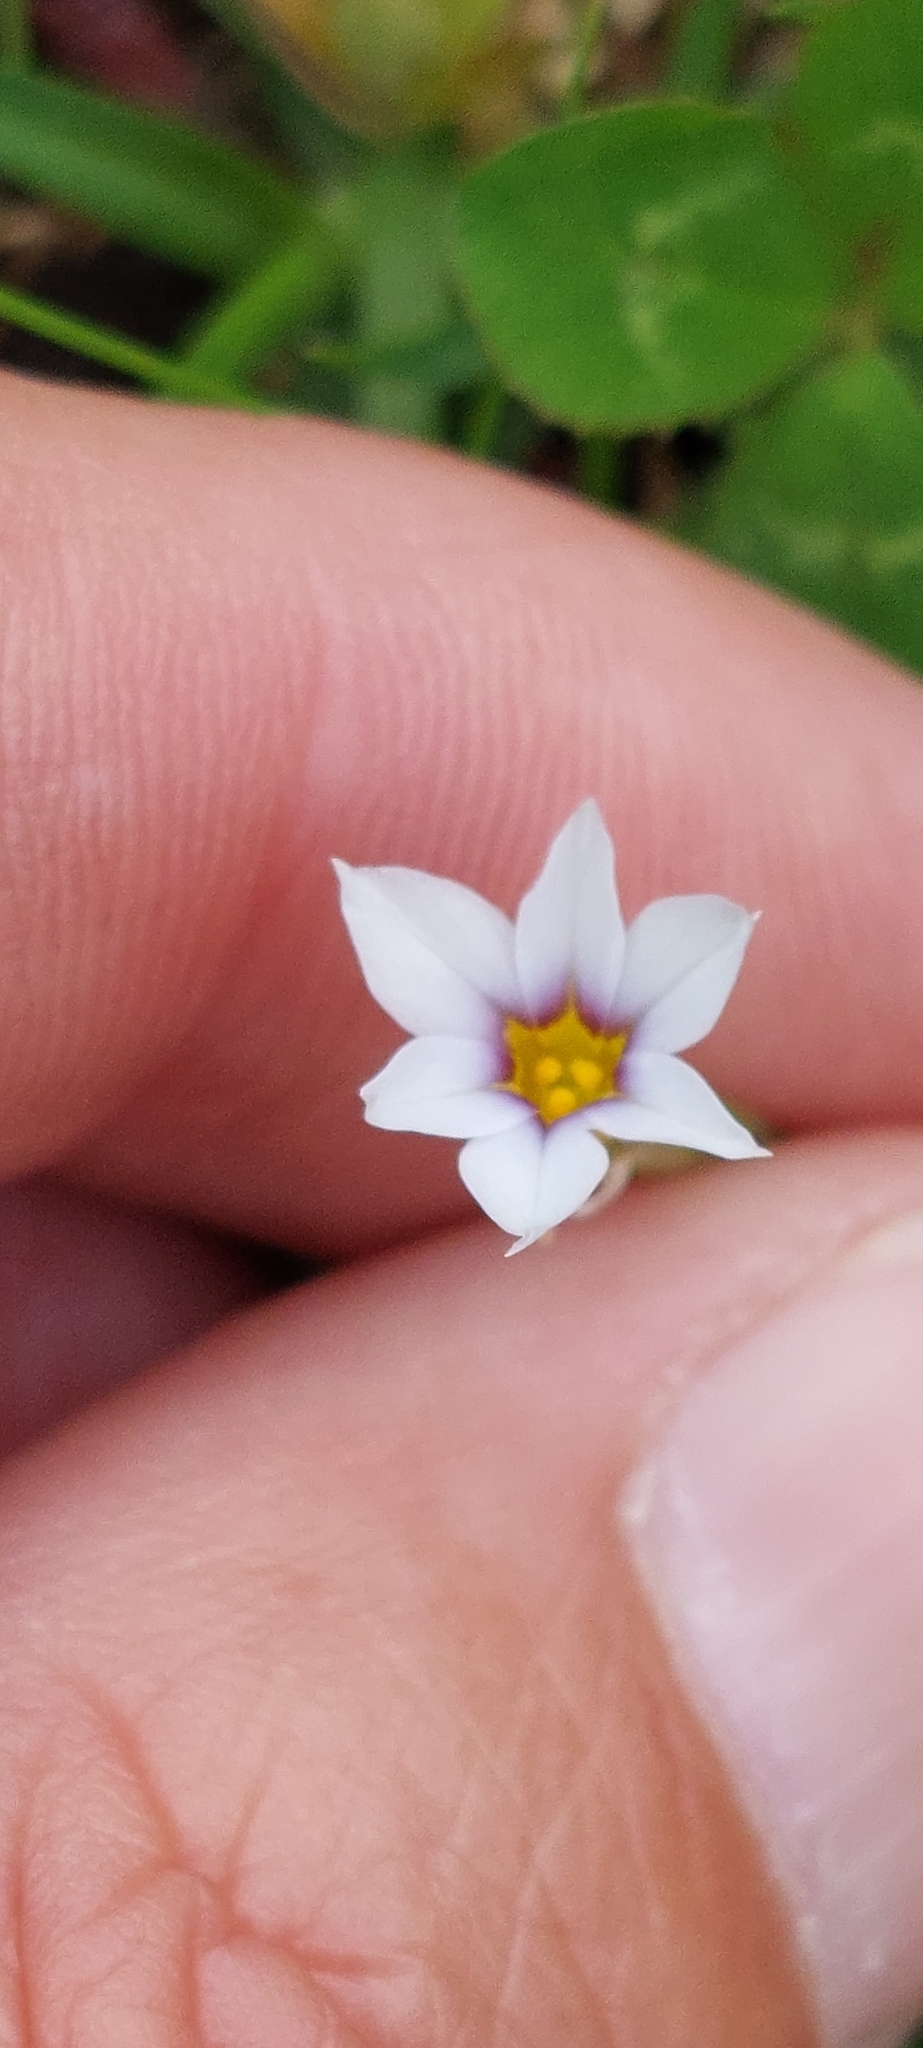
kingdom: Plantae
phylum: Tracheophyta
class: Liliopsida
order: Asparagales
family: Iridaceae
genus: Sisyrinchium
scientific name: Sisyrinchium micranthum
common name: Bermuda pigroot
